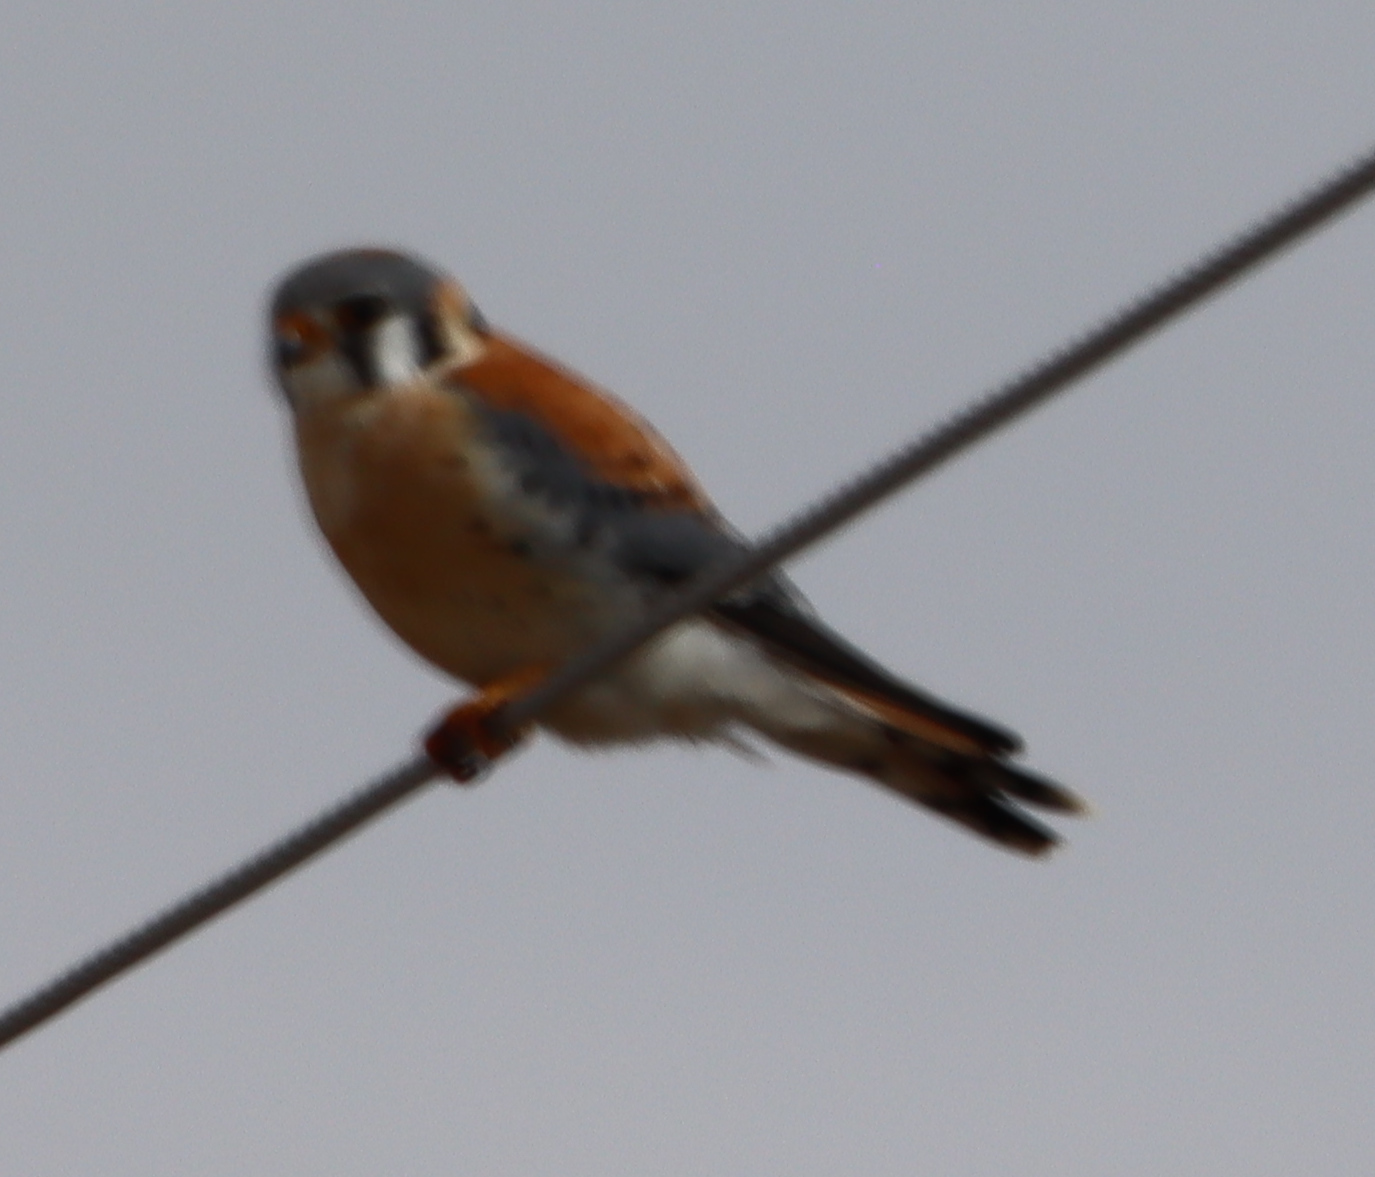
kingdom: Animalia
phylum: Chordata
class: Aves
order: Falconiformes
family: Falconidae
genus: Falco
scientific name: Falco sparverius
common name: American kestrel
